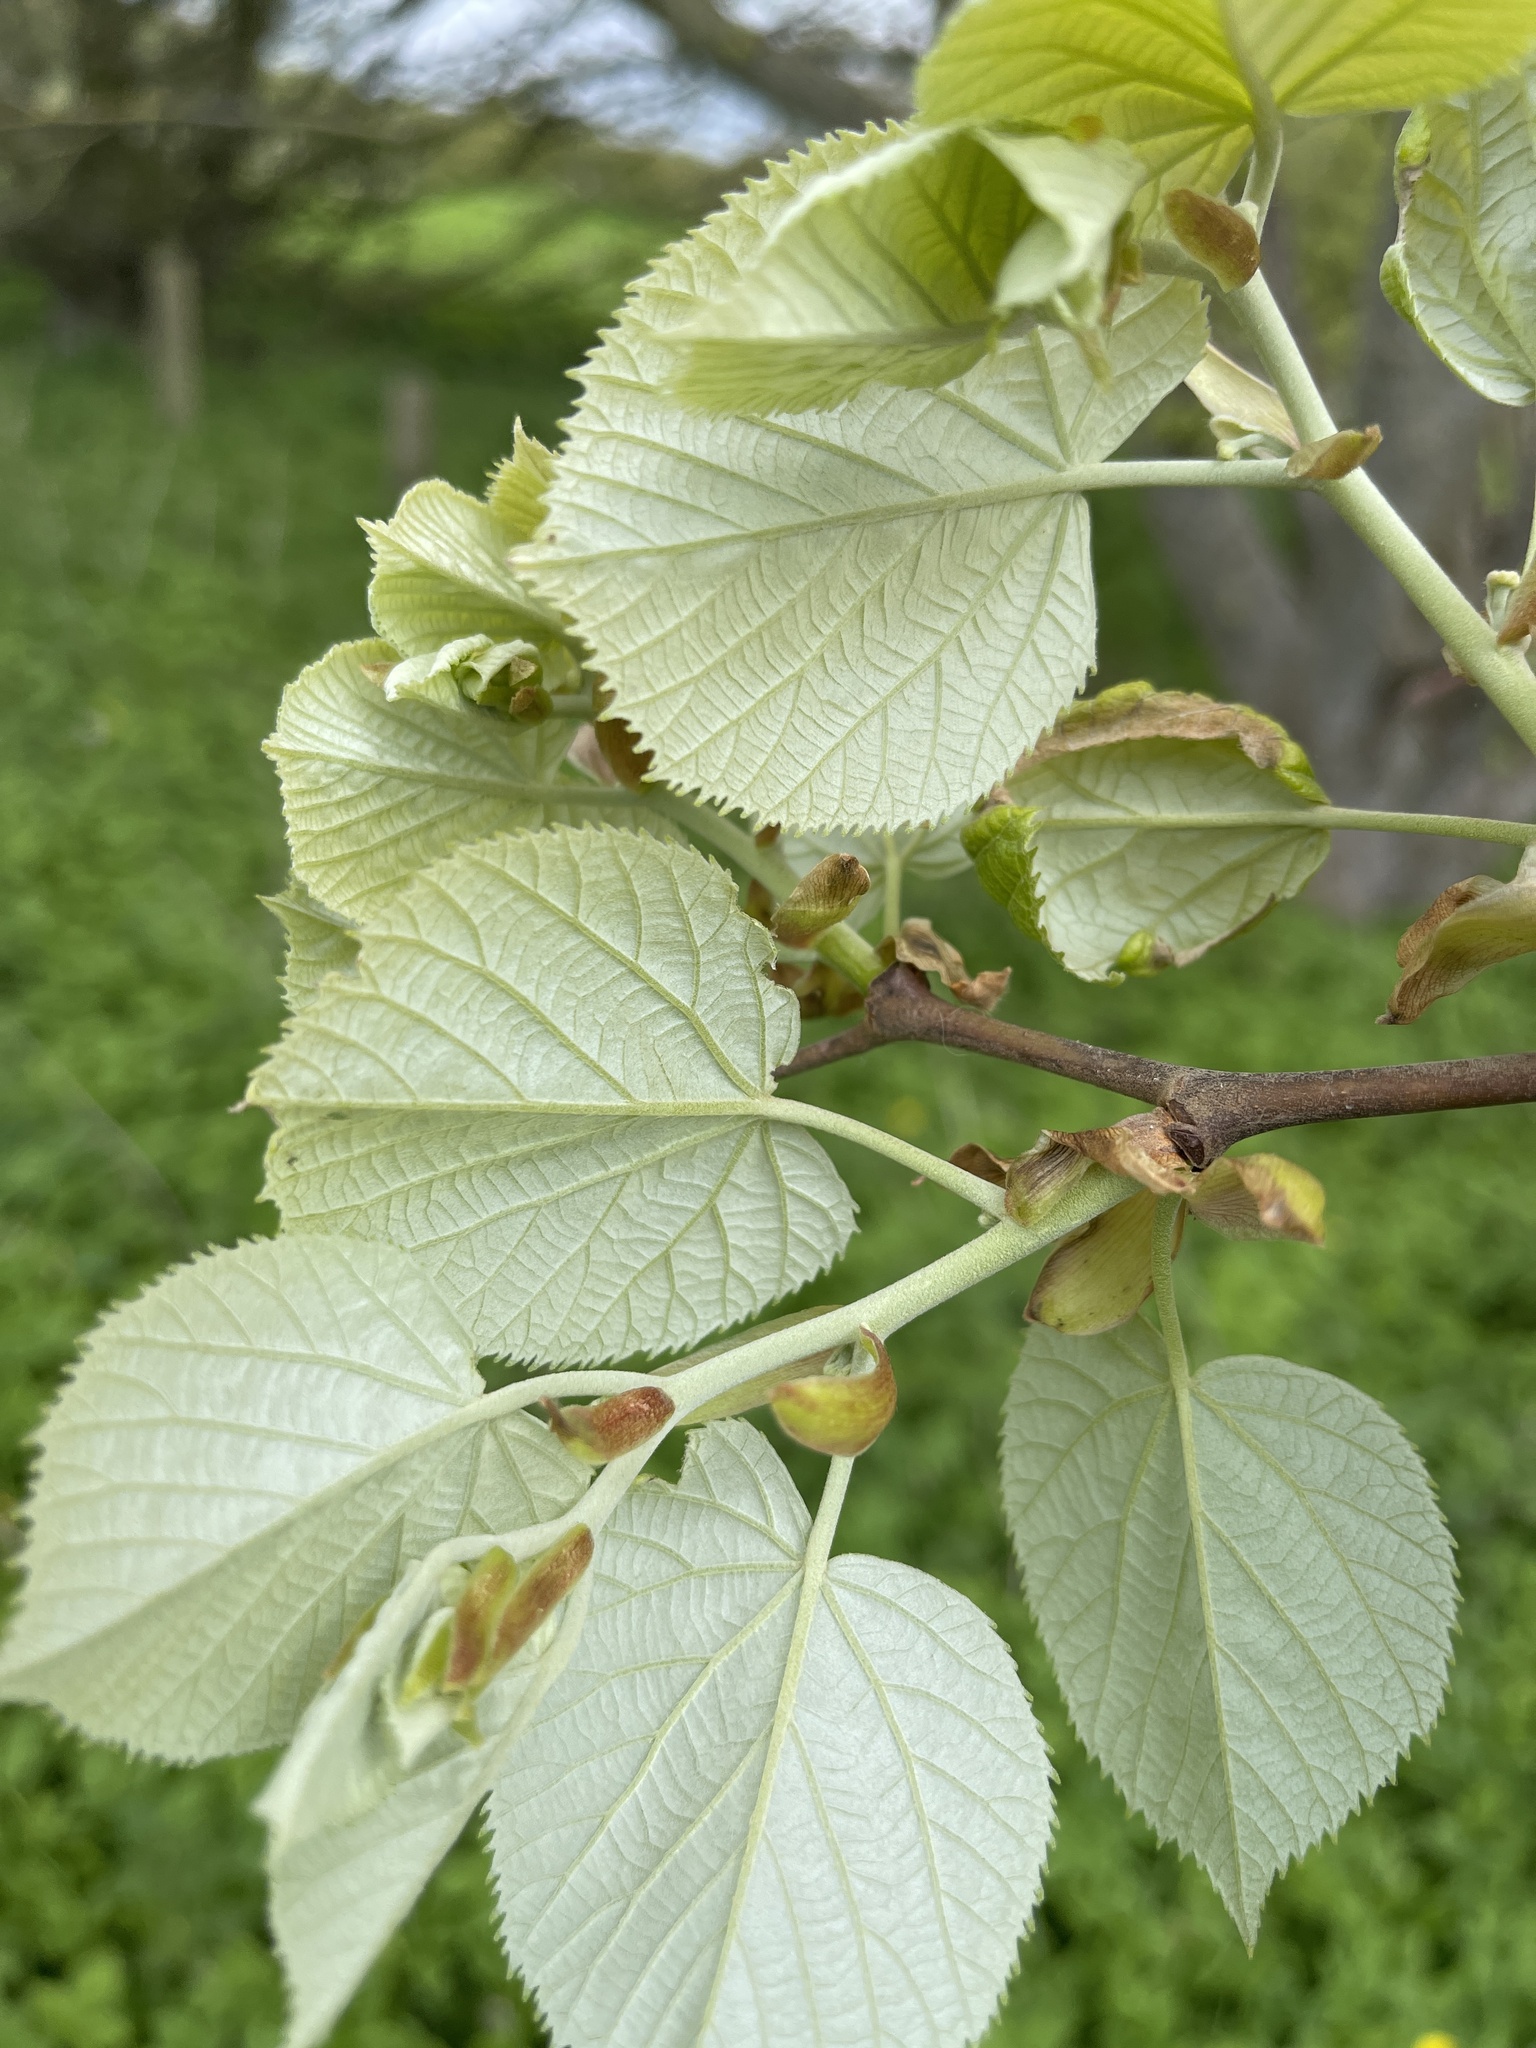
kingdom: Plantae
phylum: Tracheophyta
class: Magnoliopsida
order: Malvales
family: Malvaceae
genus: Tilia
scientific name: Tilia tomentosa
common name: Silver lime
